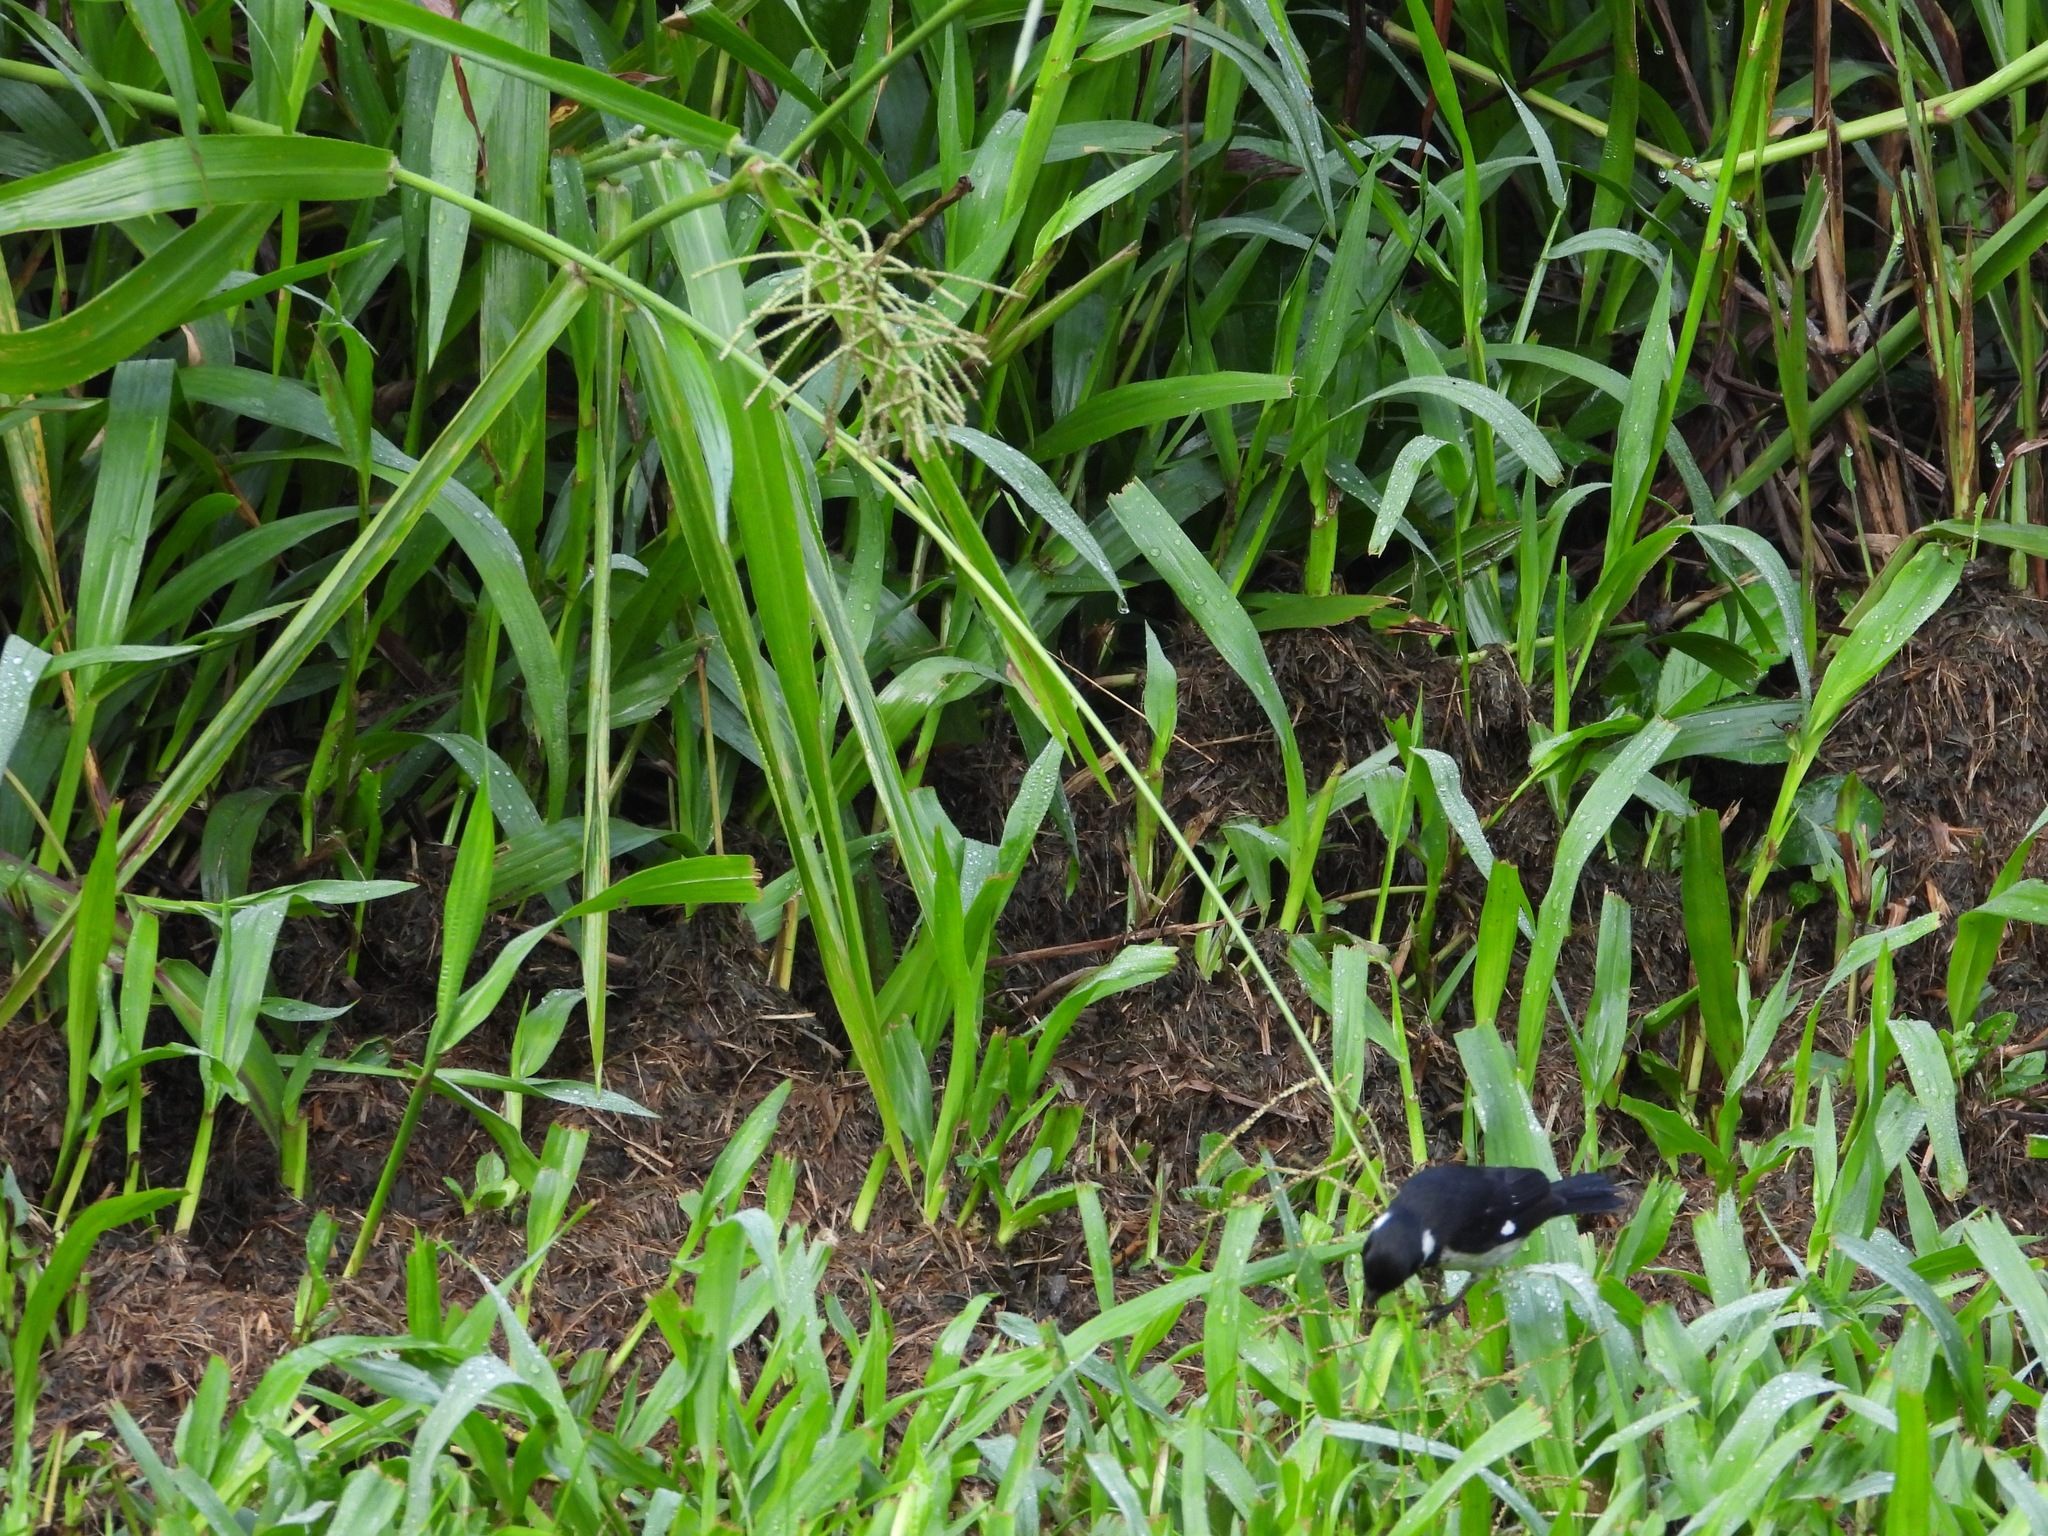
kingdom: Animalia
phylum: Chordata
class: Aves
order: Passeriformes
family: Thraupidae
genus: Sporophila
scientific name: Sporophila morelleti
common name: Morelet's seedeater
